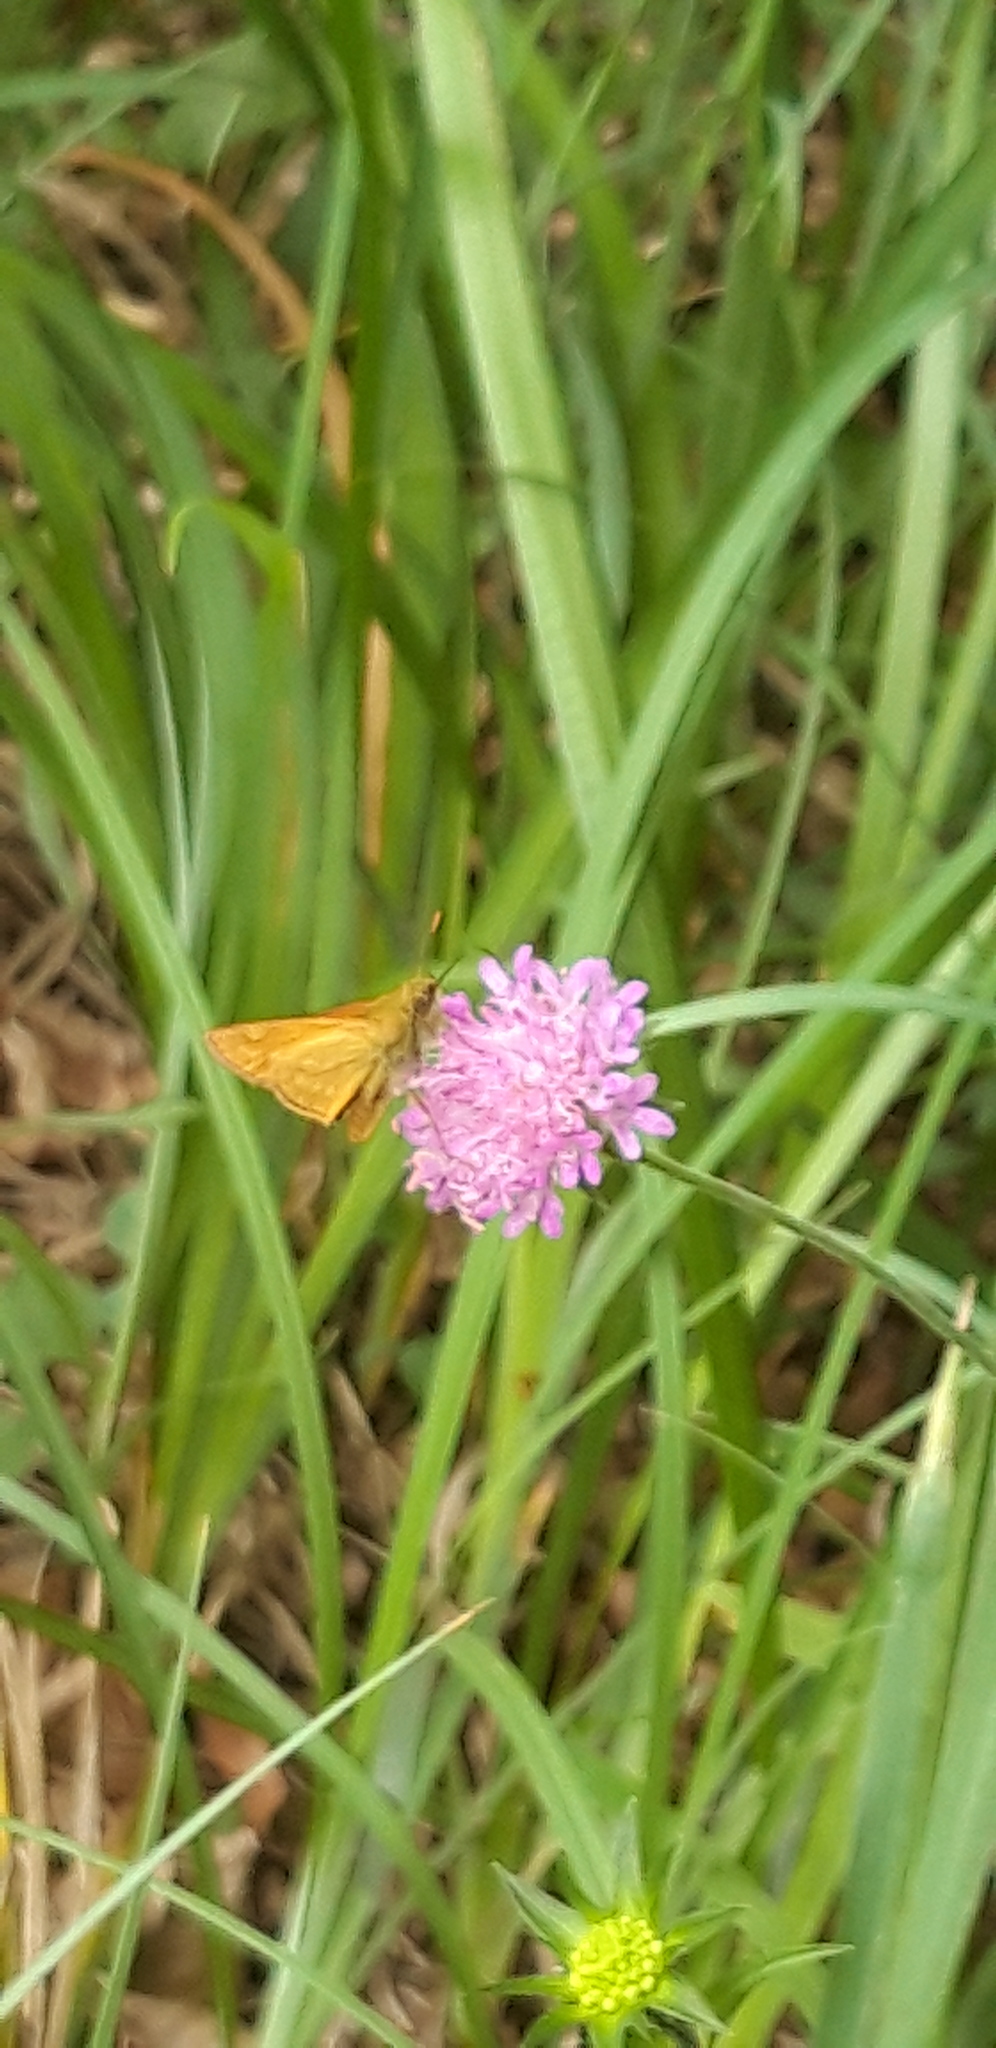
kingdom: Animalia
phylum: Arthropoda
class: Insecta
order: Lepidoptera
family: Hesperiidae
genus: Ochlodes
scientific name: Ochlodes venata
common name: Large skipper
